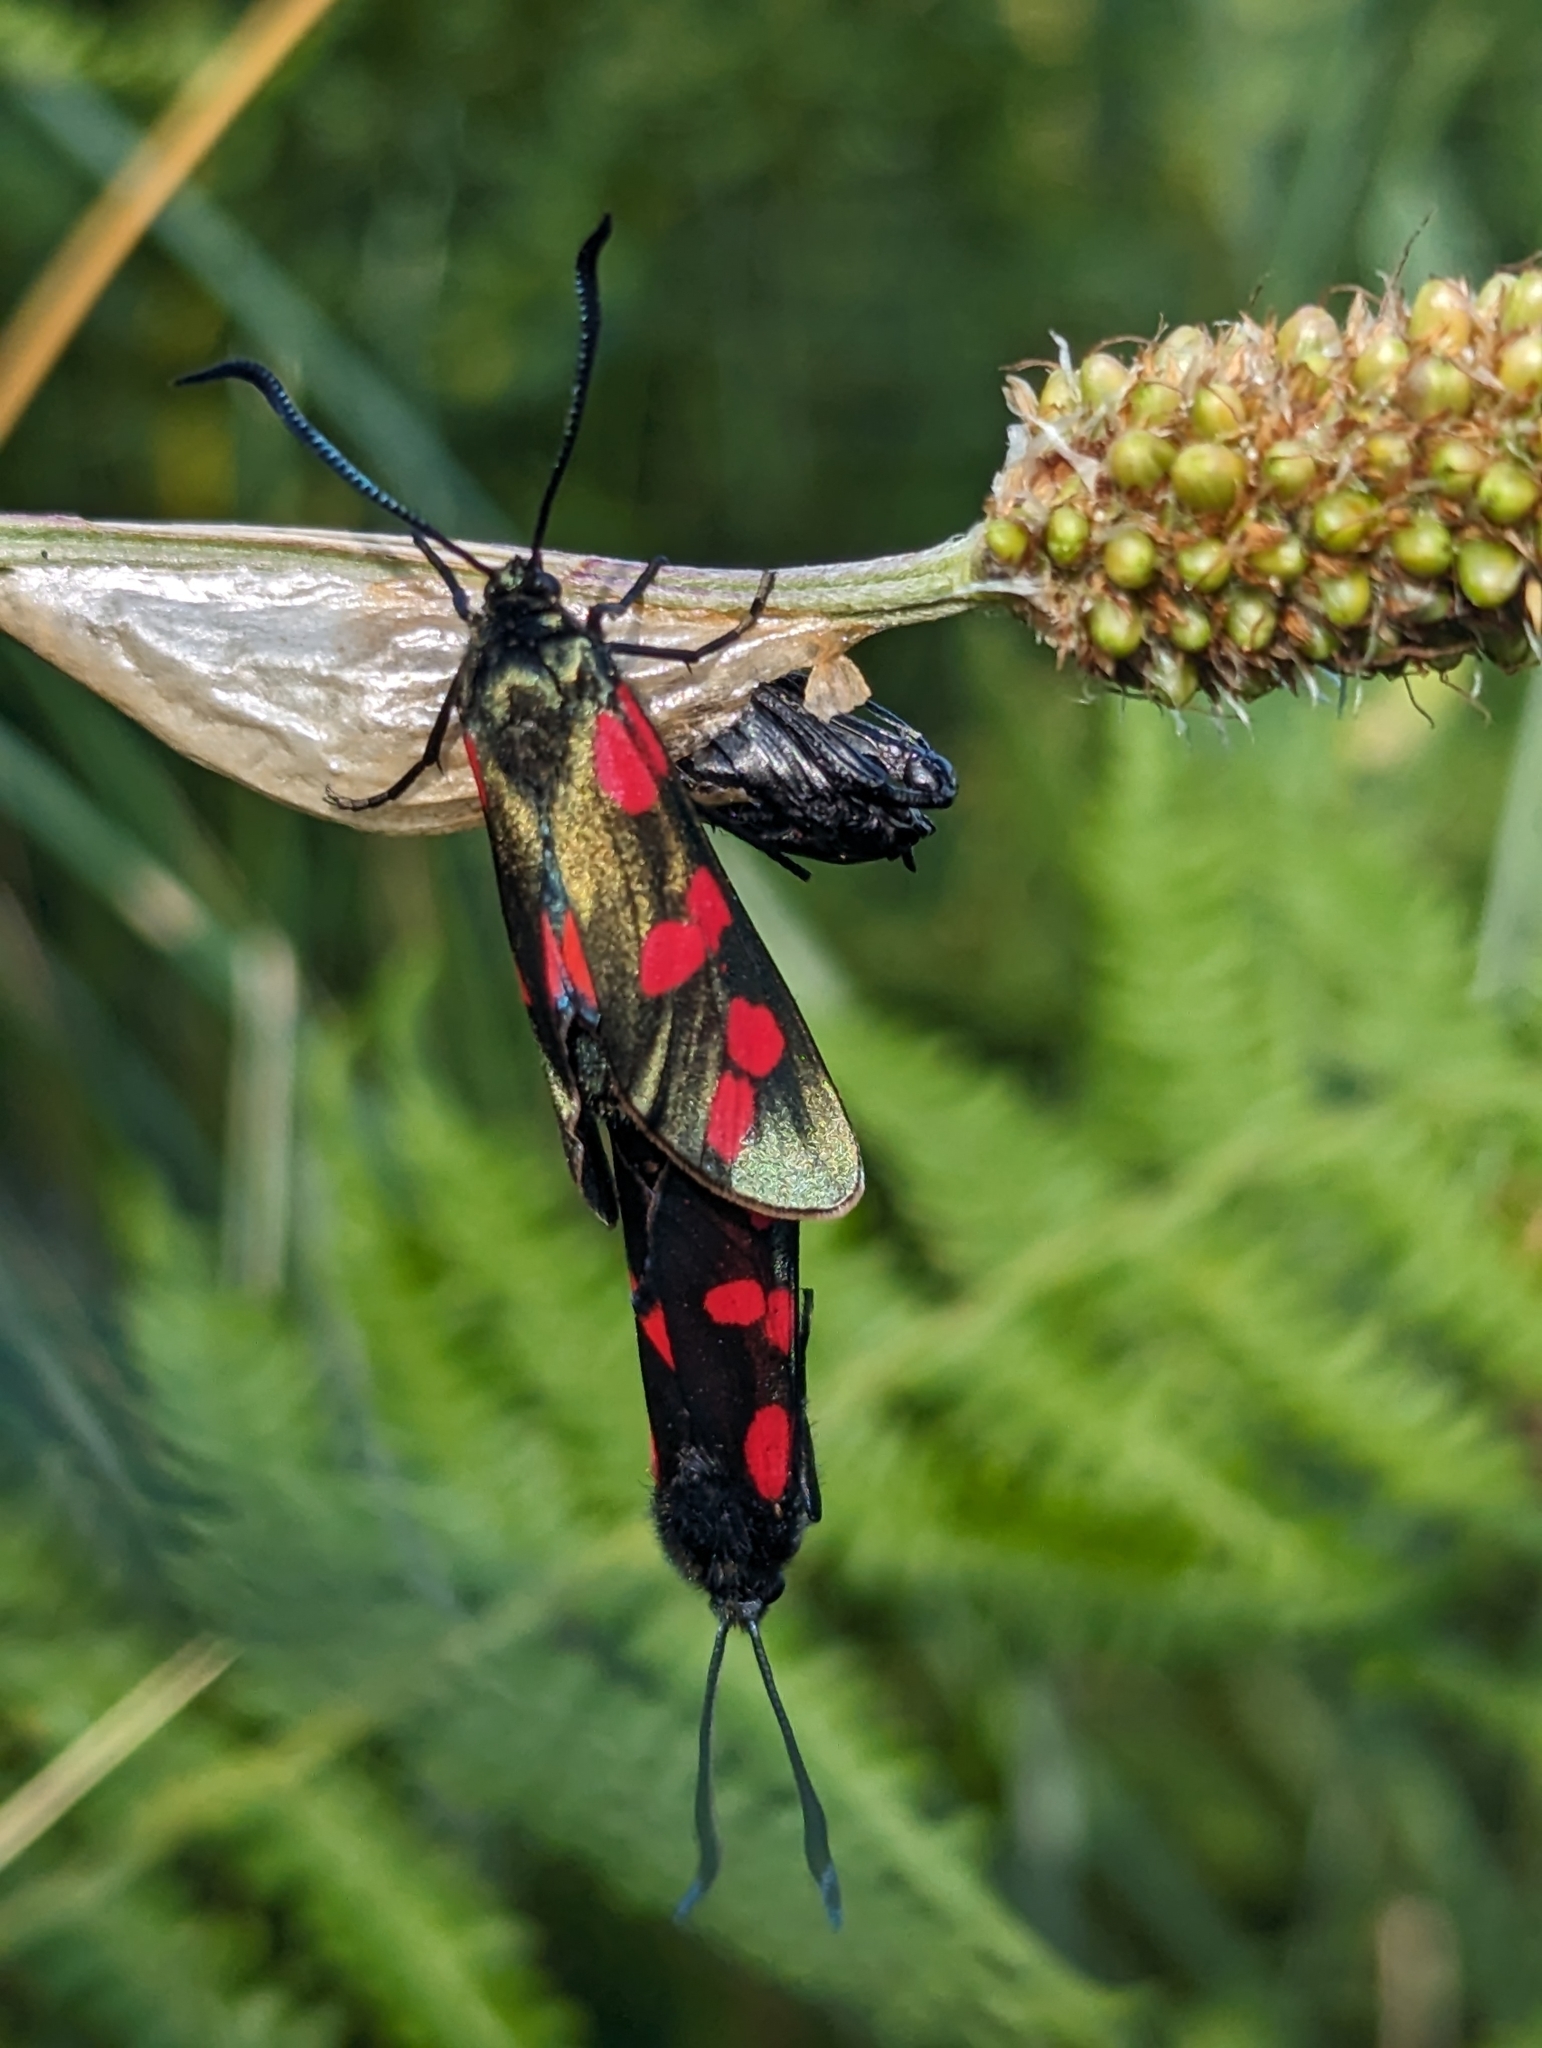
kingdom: Animalia
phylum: Arthropoda
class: Insecta
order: Lepidoptera
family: Zygaenidae
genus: Zygaena
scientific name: Zygaena filipendulae
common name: Six-spot burnet
